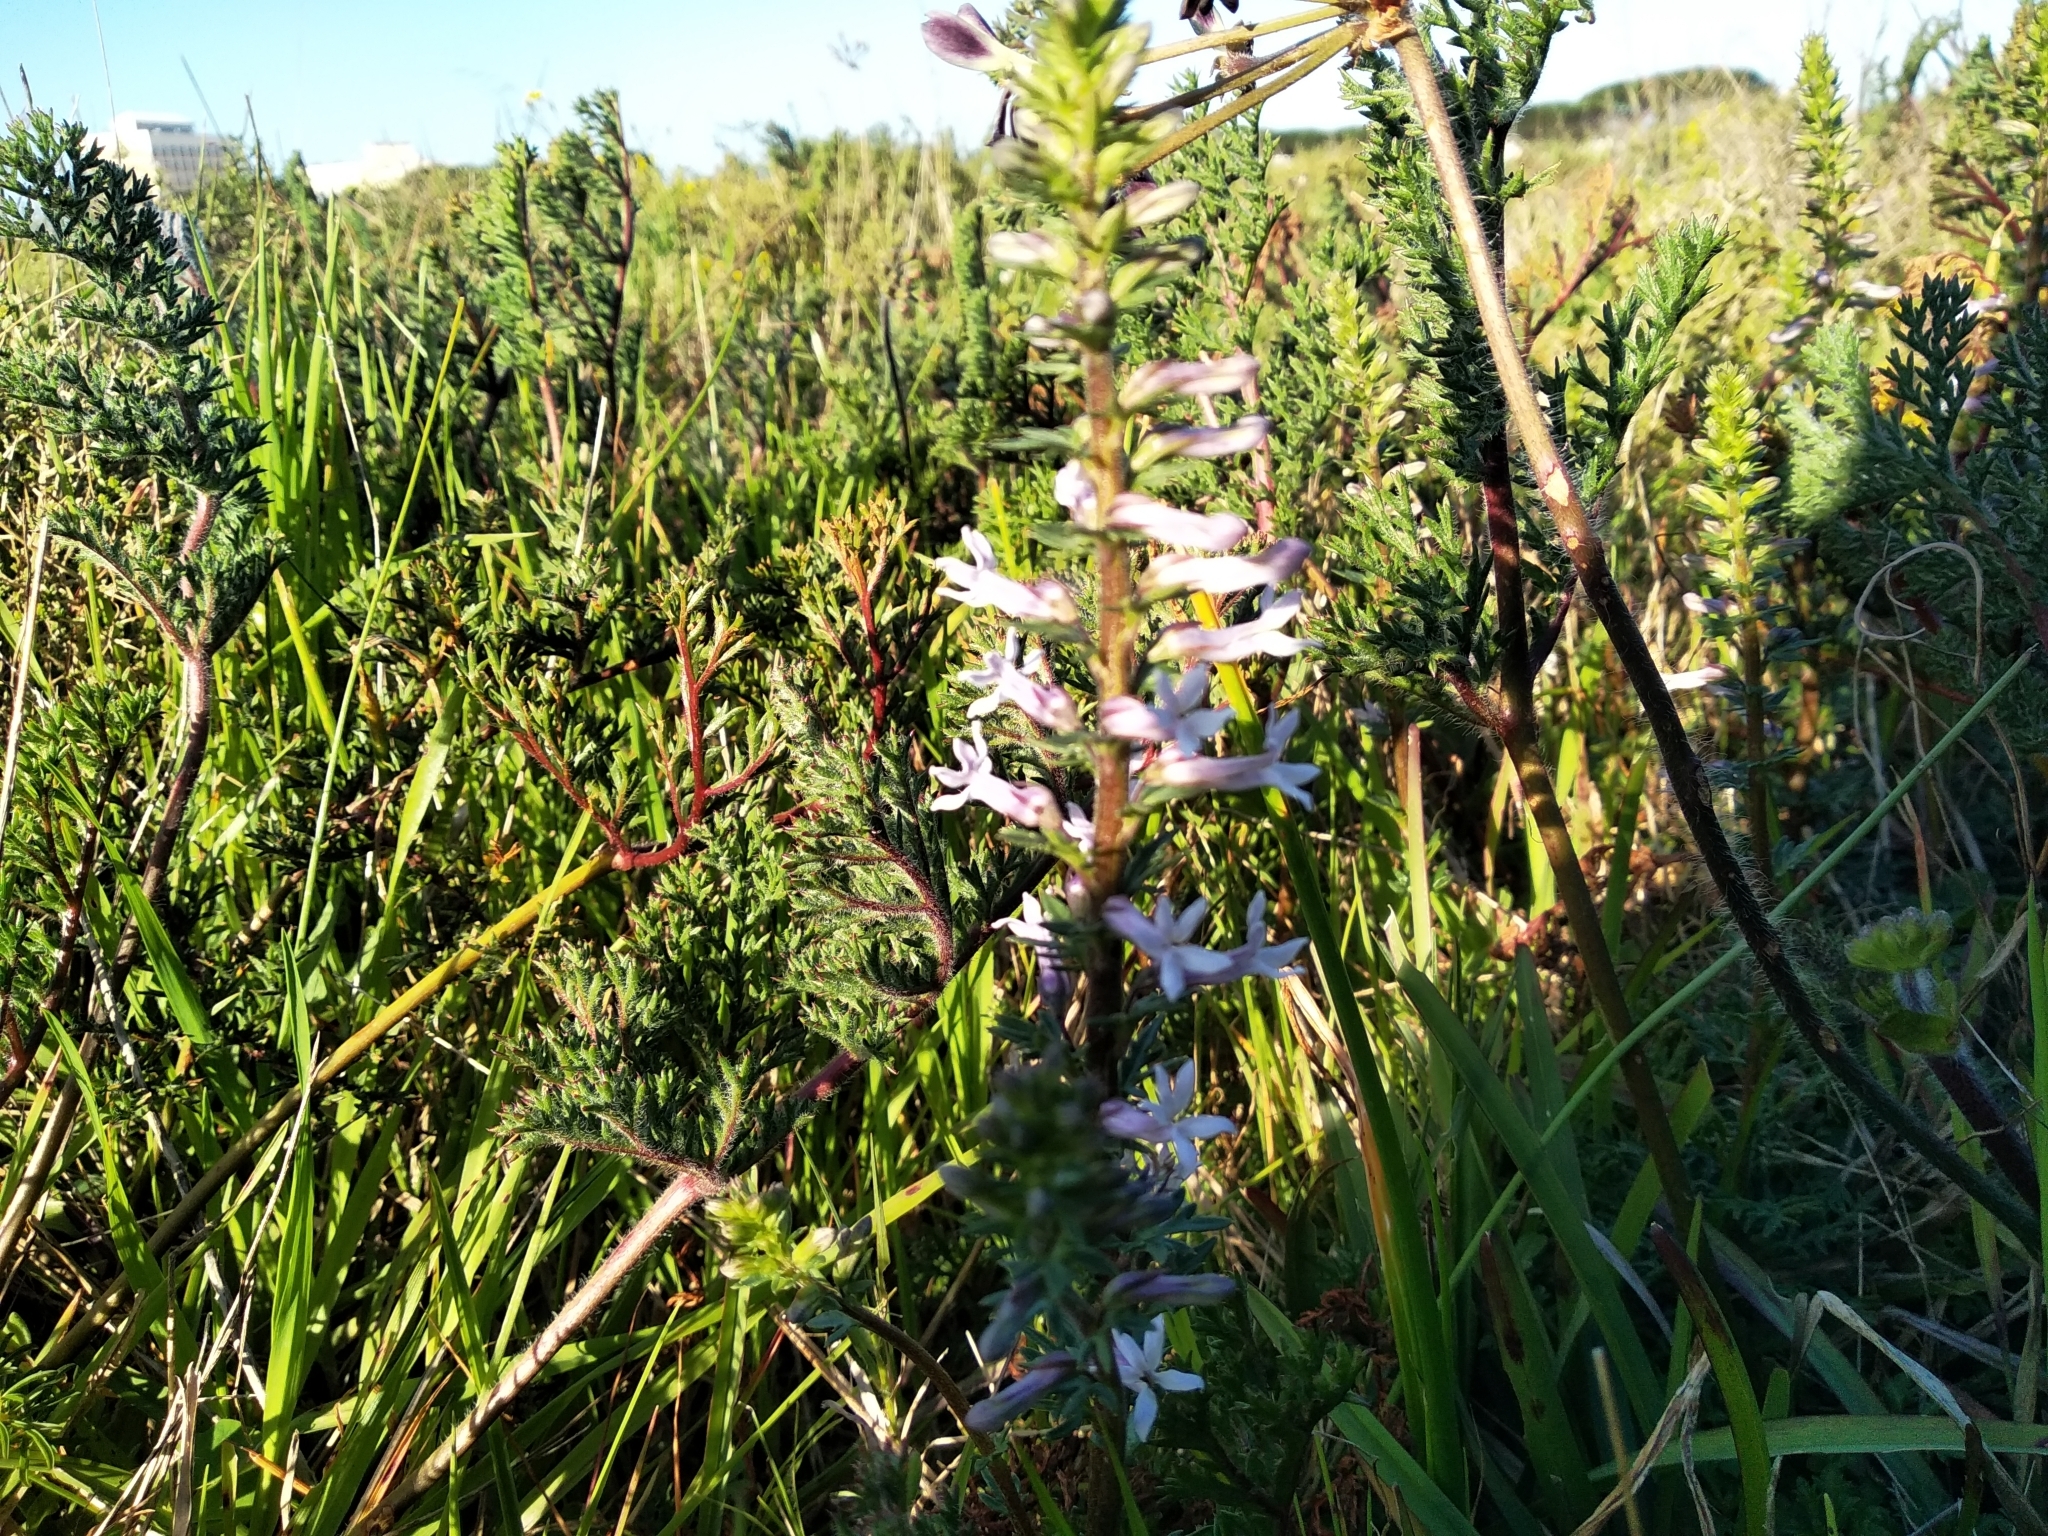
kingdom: Plantae
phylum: Tracheophyta
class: Magnoliopsida
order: Asterales
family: Campanulaceae
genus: Cyphia
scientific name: Cyphia bulbosa
